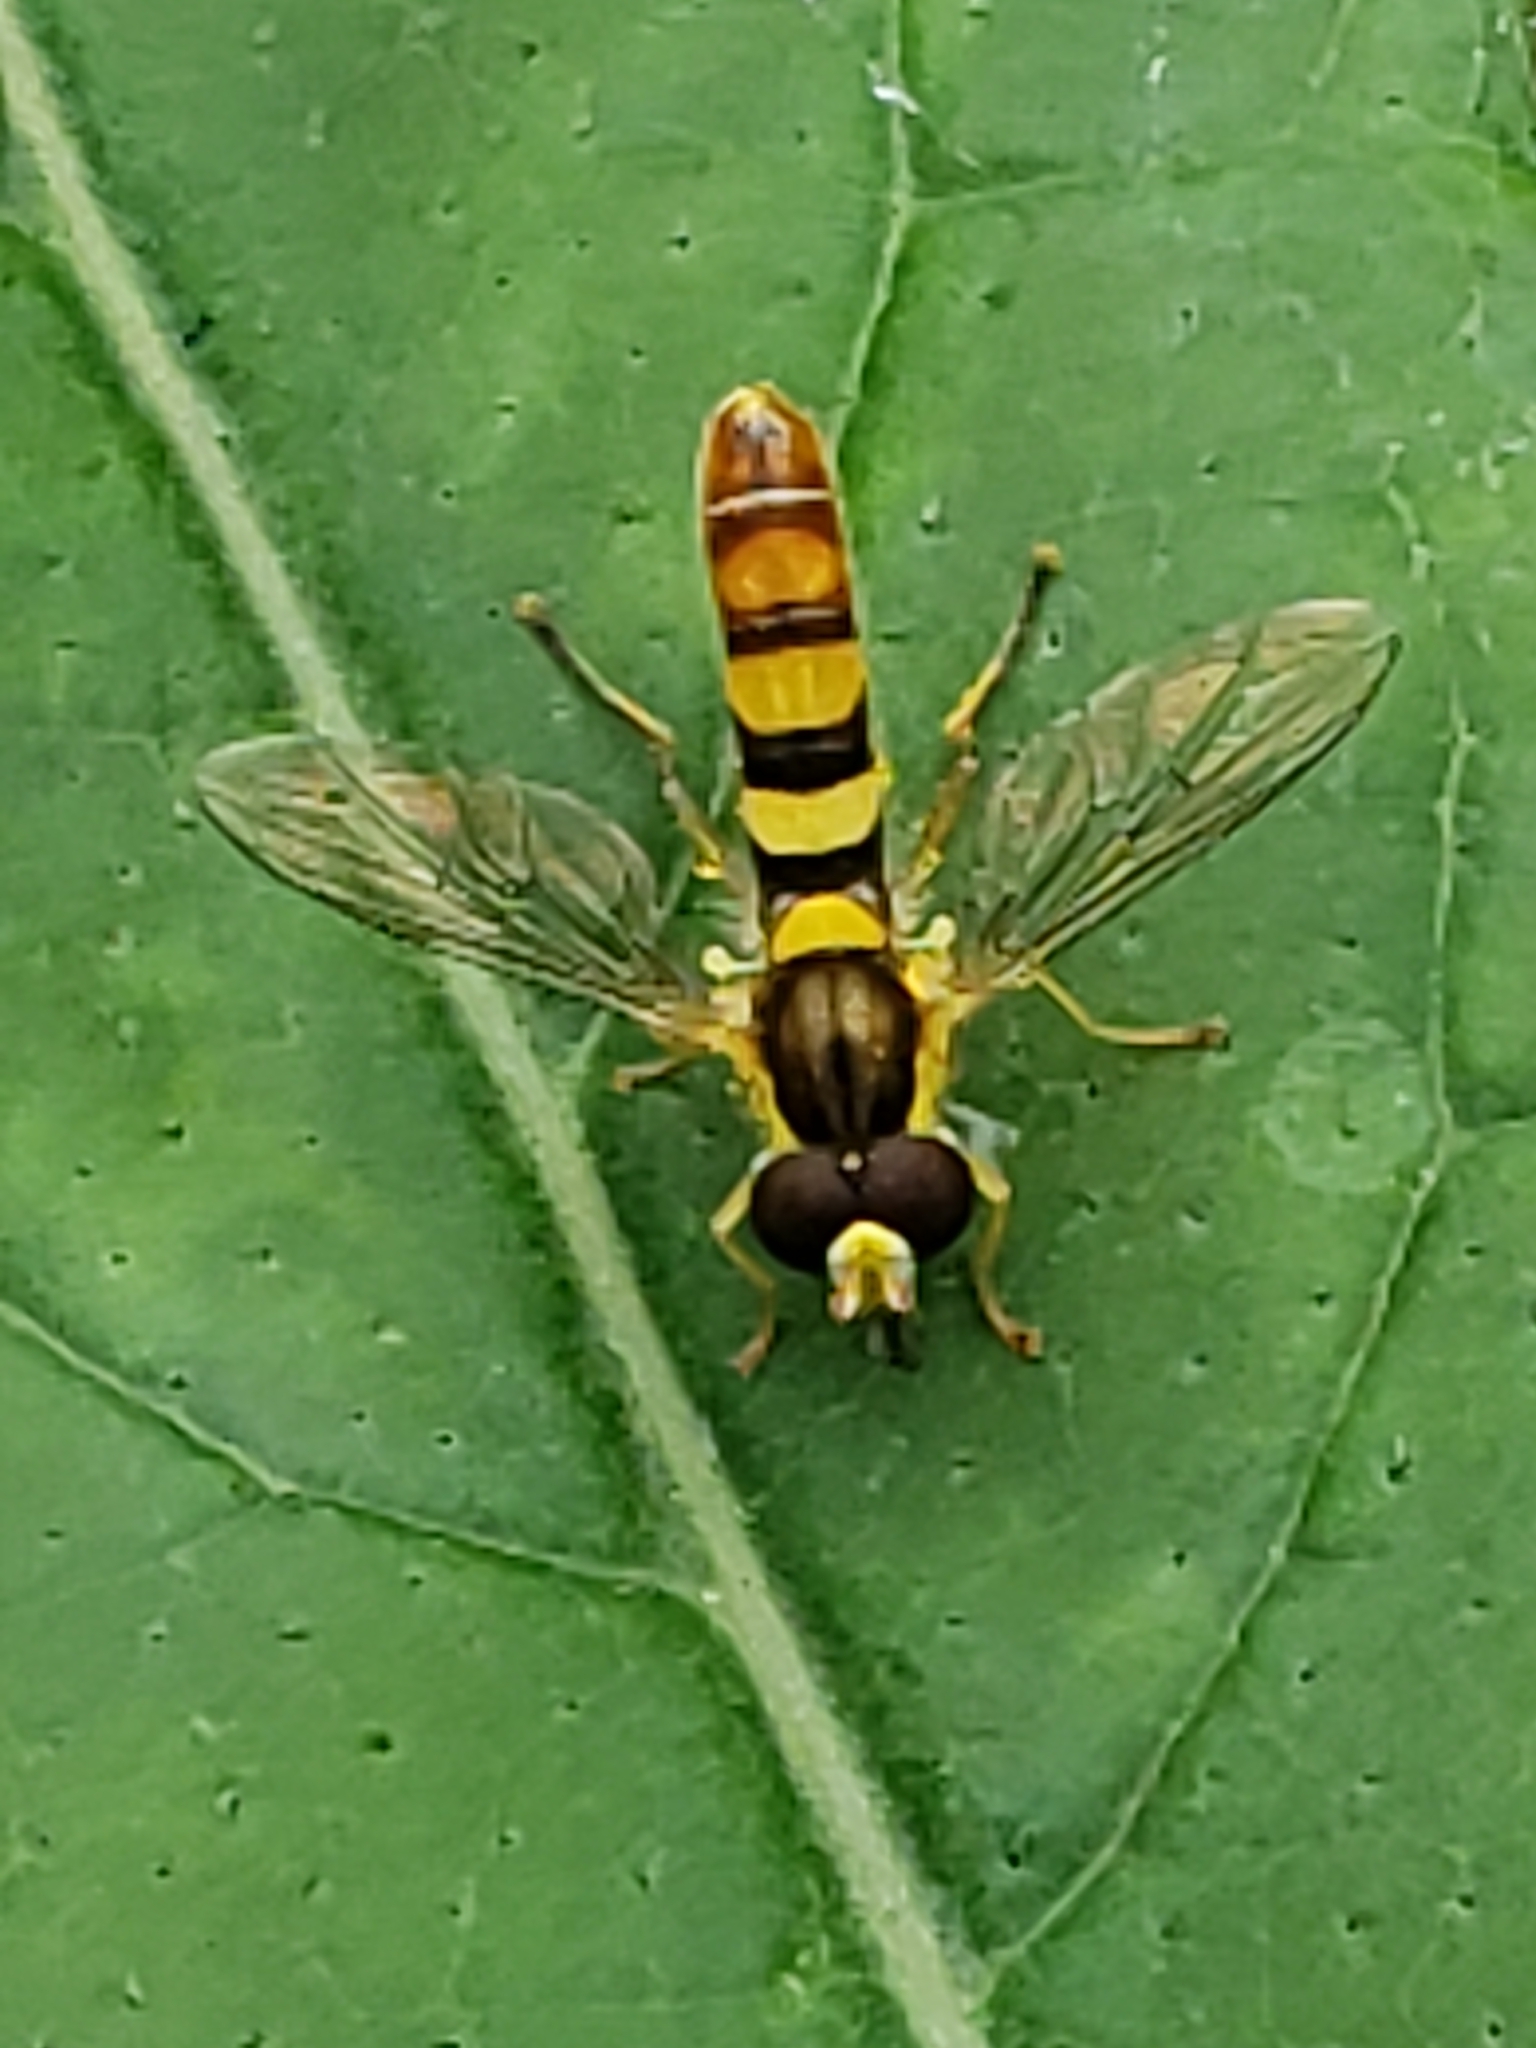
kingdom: Animalia
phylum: Arthropoda
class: Insecta
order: Diptera
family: Syrphidae
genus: Sphaerophoria
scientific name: Sphaerophoria contigua
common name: Tufted globetail
